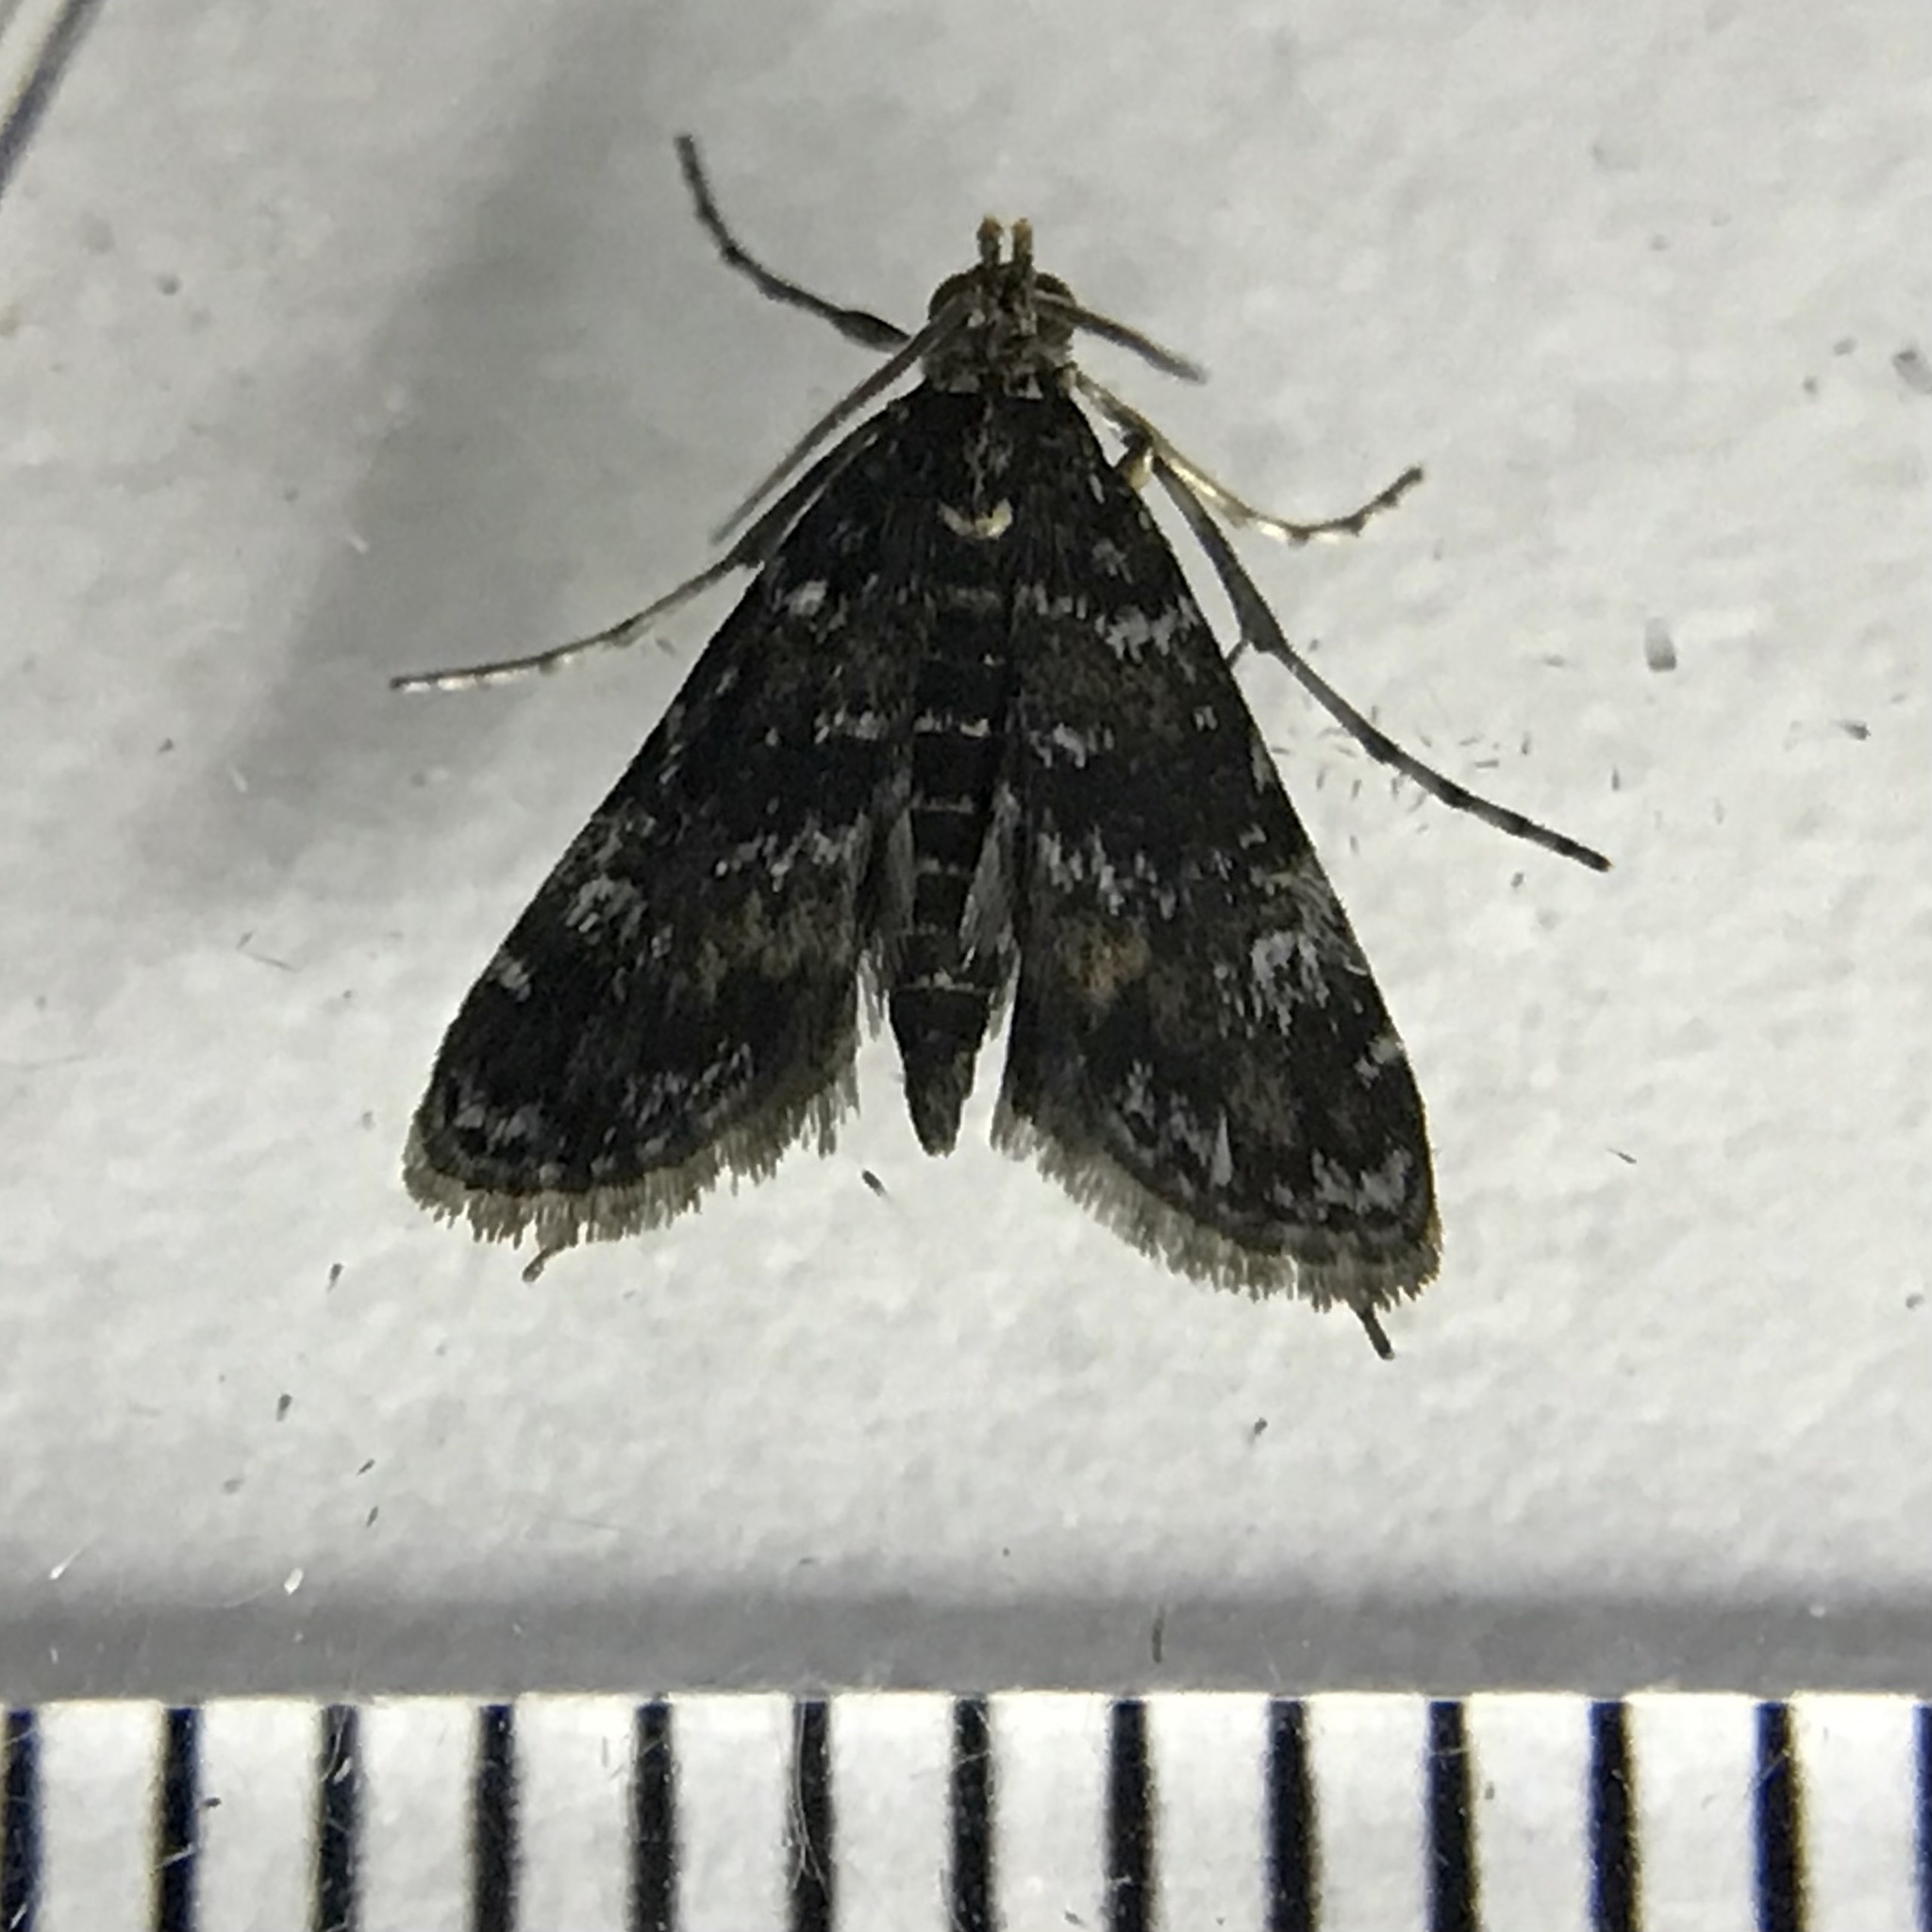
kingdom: Animalia
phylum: Arthropoda
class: Insecta
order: Lepidoptera
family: Crambidae
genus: Elophila
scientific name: Elophila obliteralis
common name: Waterlily leafcutter moth
